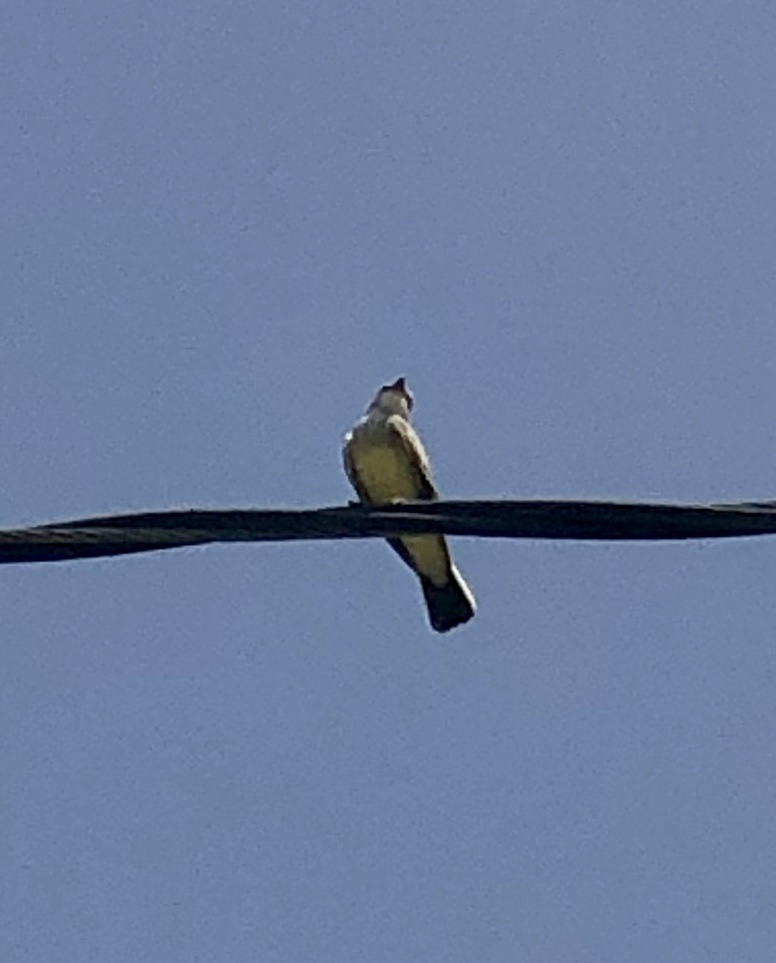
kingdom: Animalia
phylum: Chordata
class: Aves
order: Passeriformes
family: Tyrannidae
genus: Tyrannus
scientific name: Tyrannus verticalis
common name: Western kingbird
